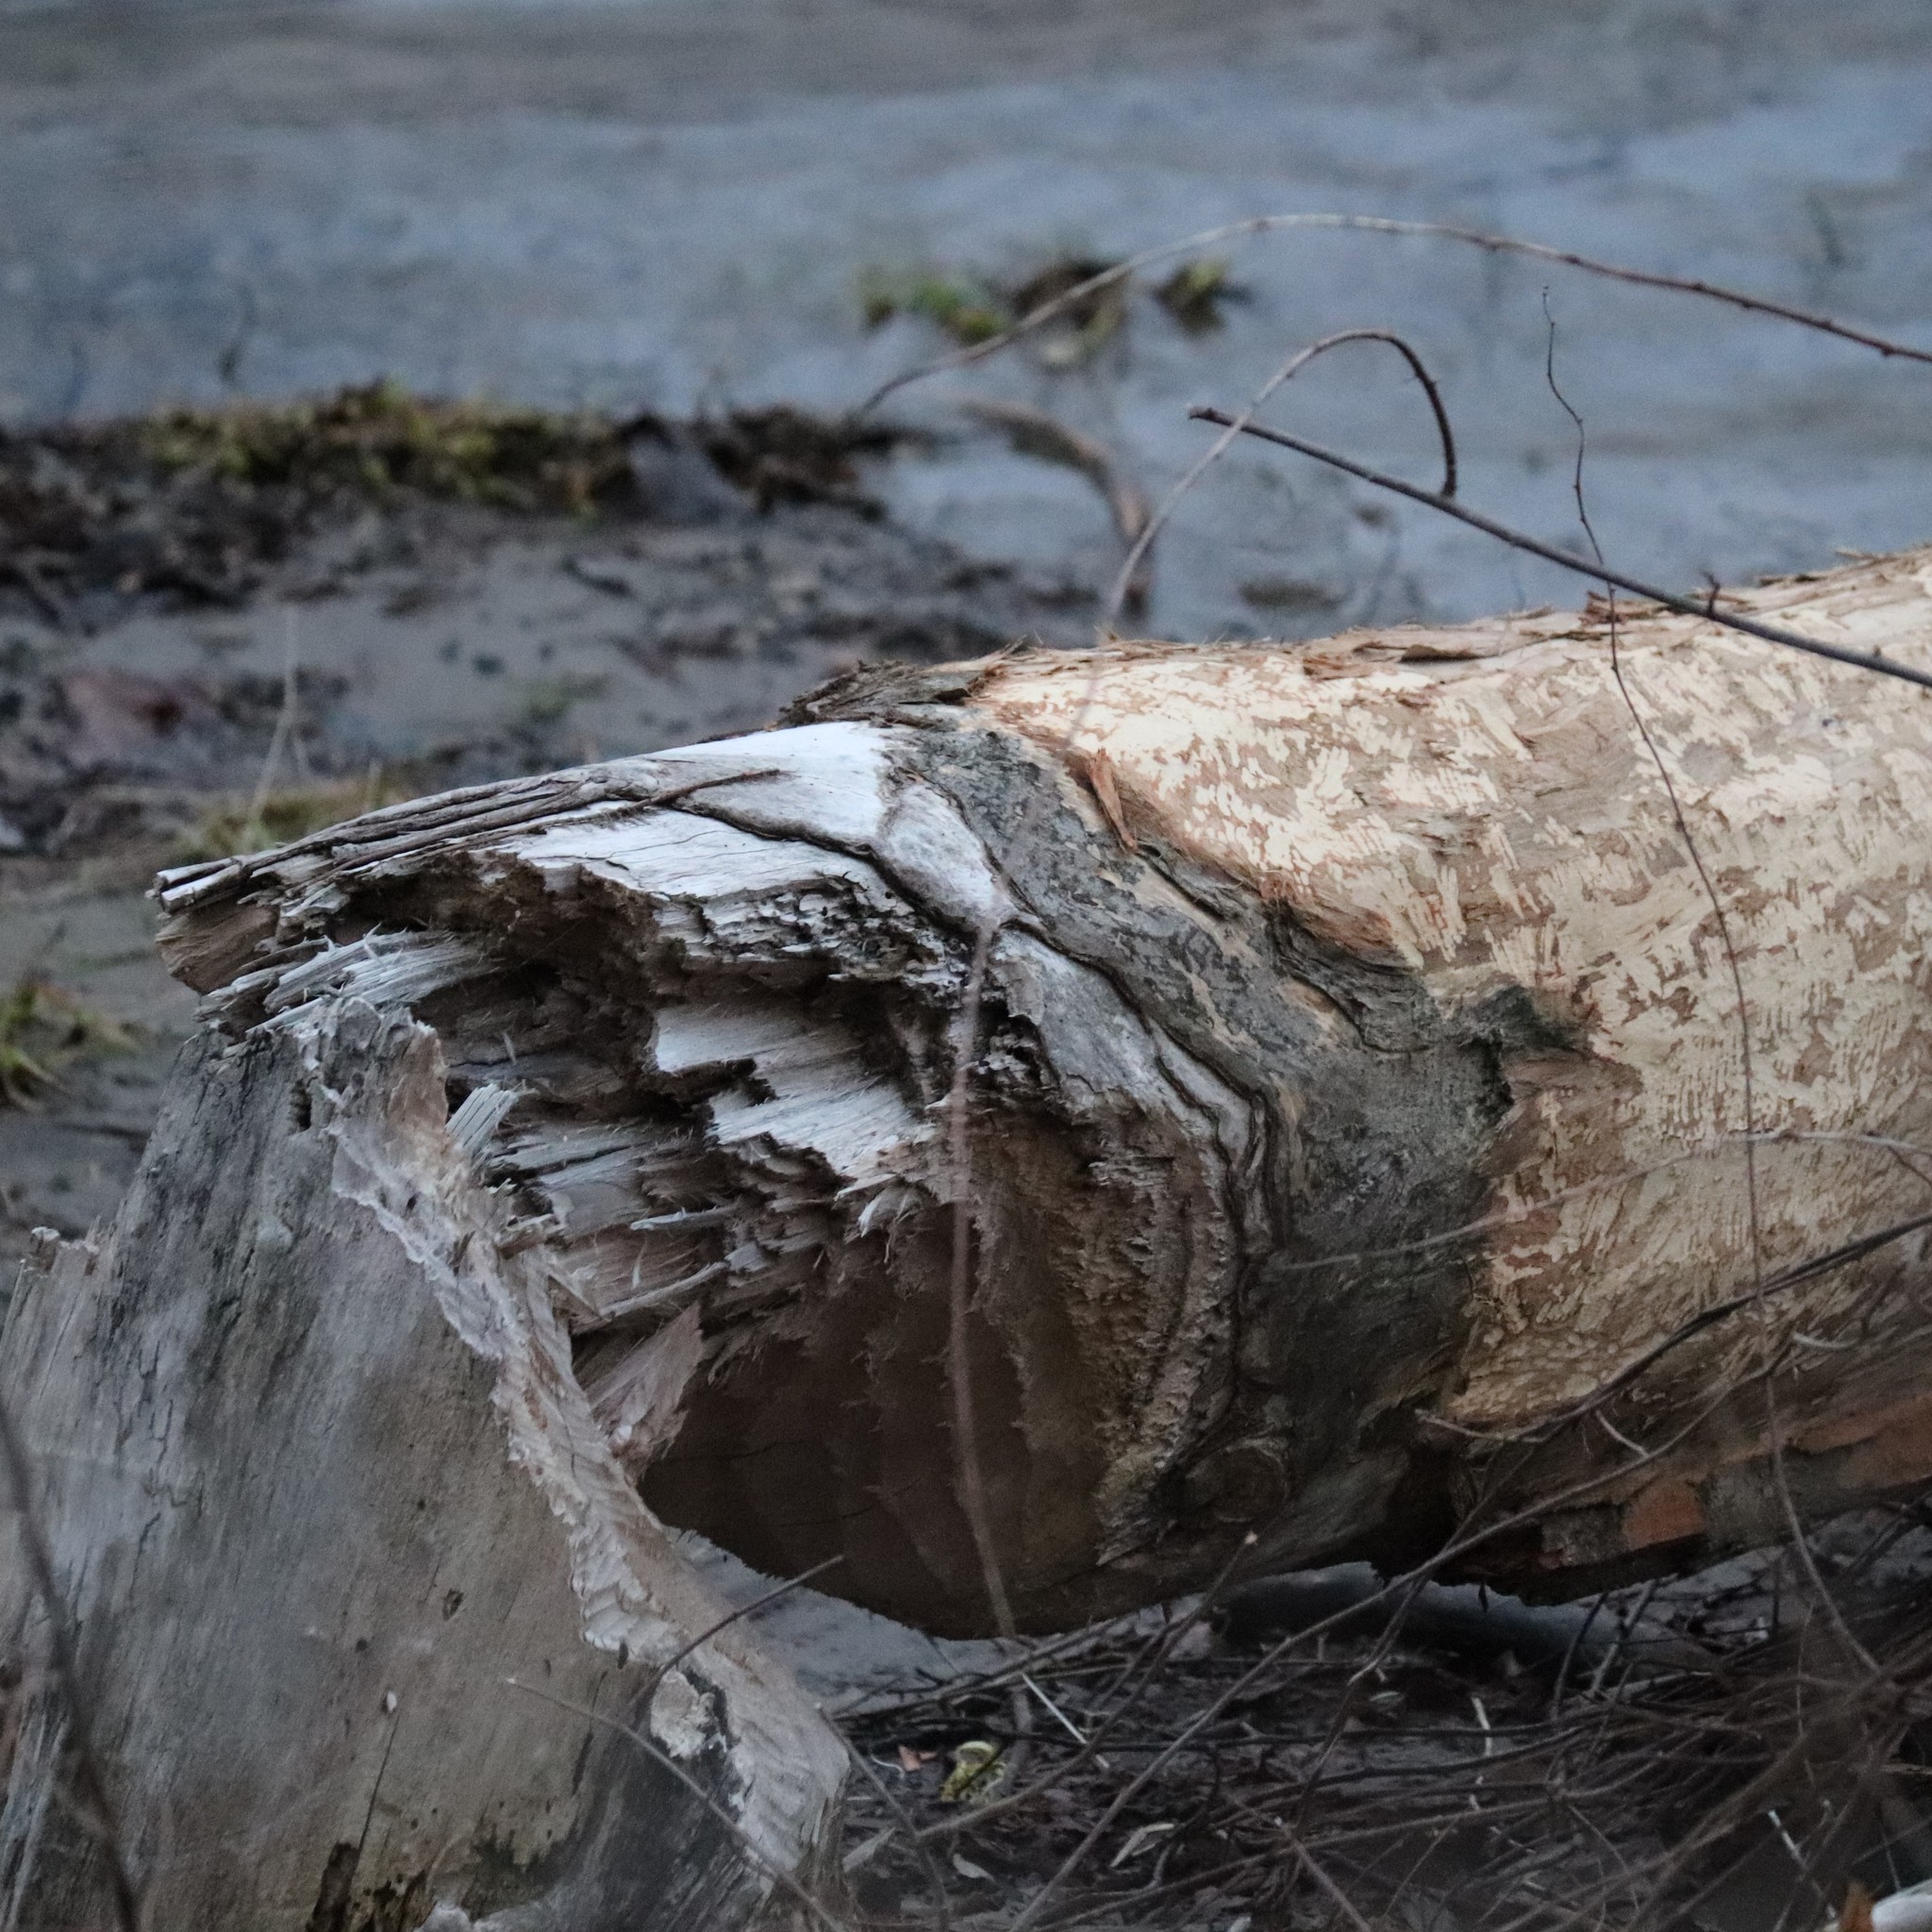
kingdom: Animalia
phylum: Chordata
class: Mammalia
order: Rodentia
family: Castoridae
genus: Castor
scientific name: Castor canadensis
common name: American beaver
